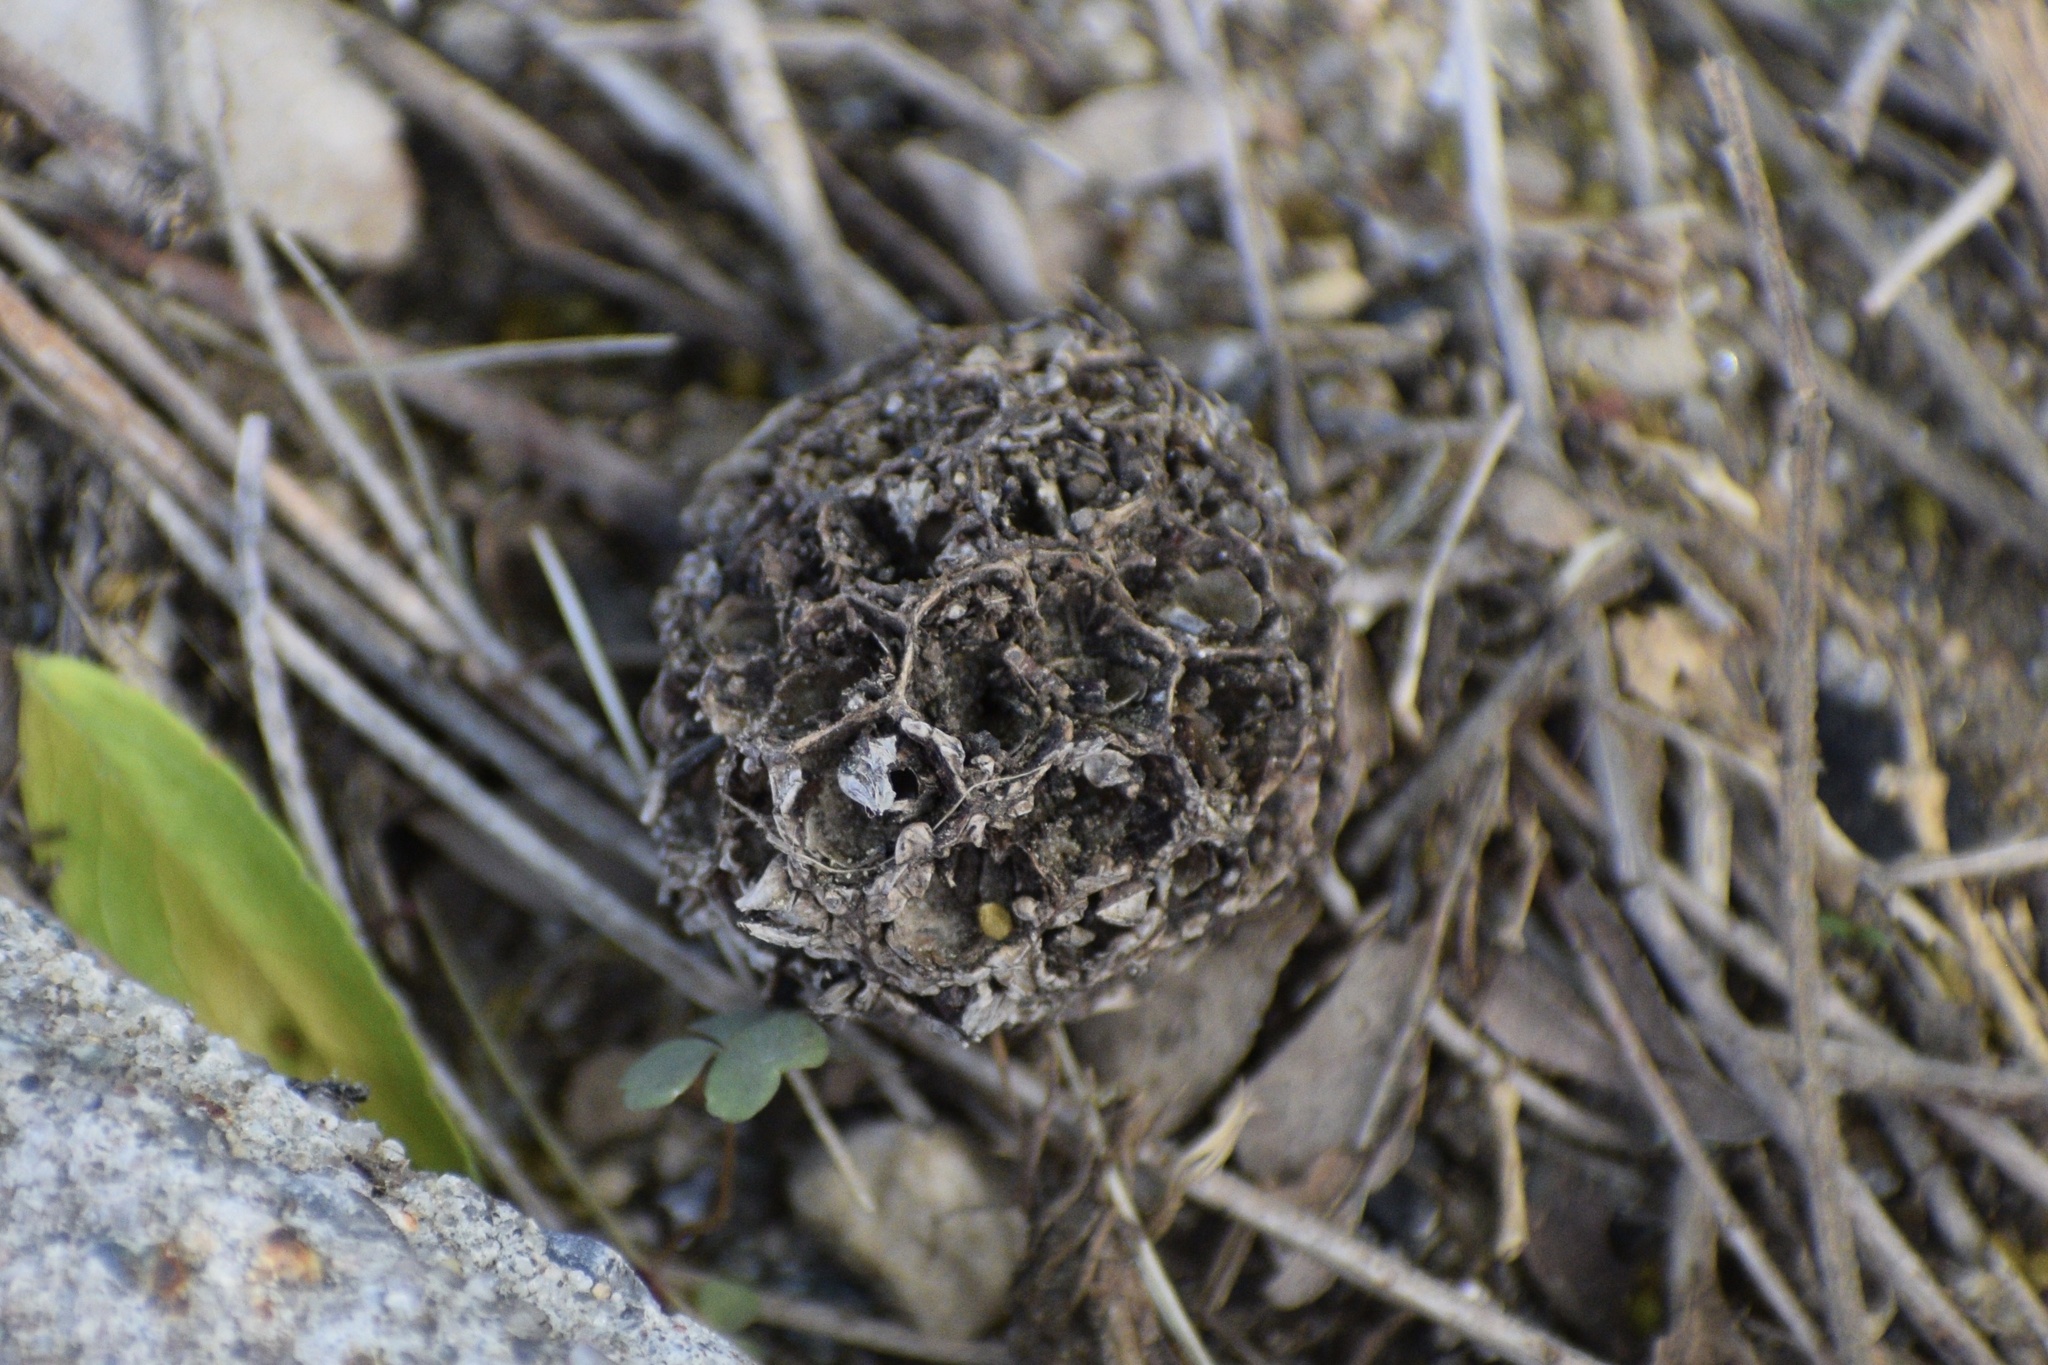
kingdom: Plantae
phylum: Tracheophyta
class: Magnoliopsida
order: Saxifragales
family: Altingiaceae
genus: Liquidambar
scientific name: Liquidambar styraciflua
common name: Sweet gum
